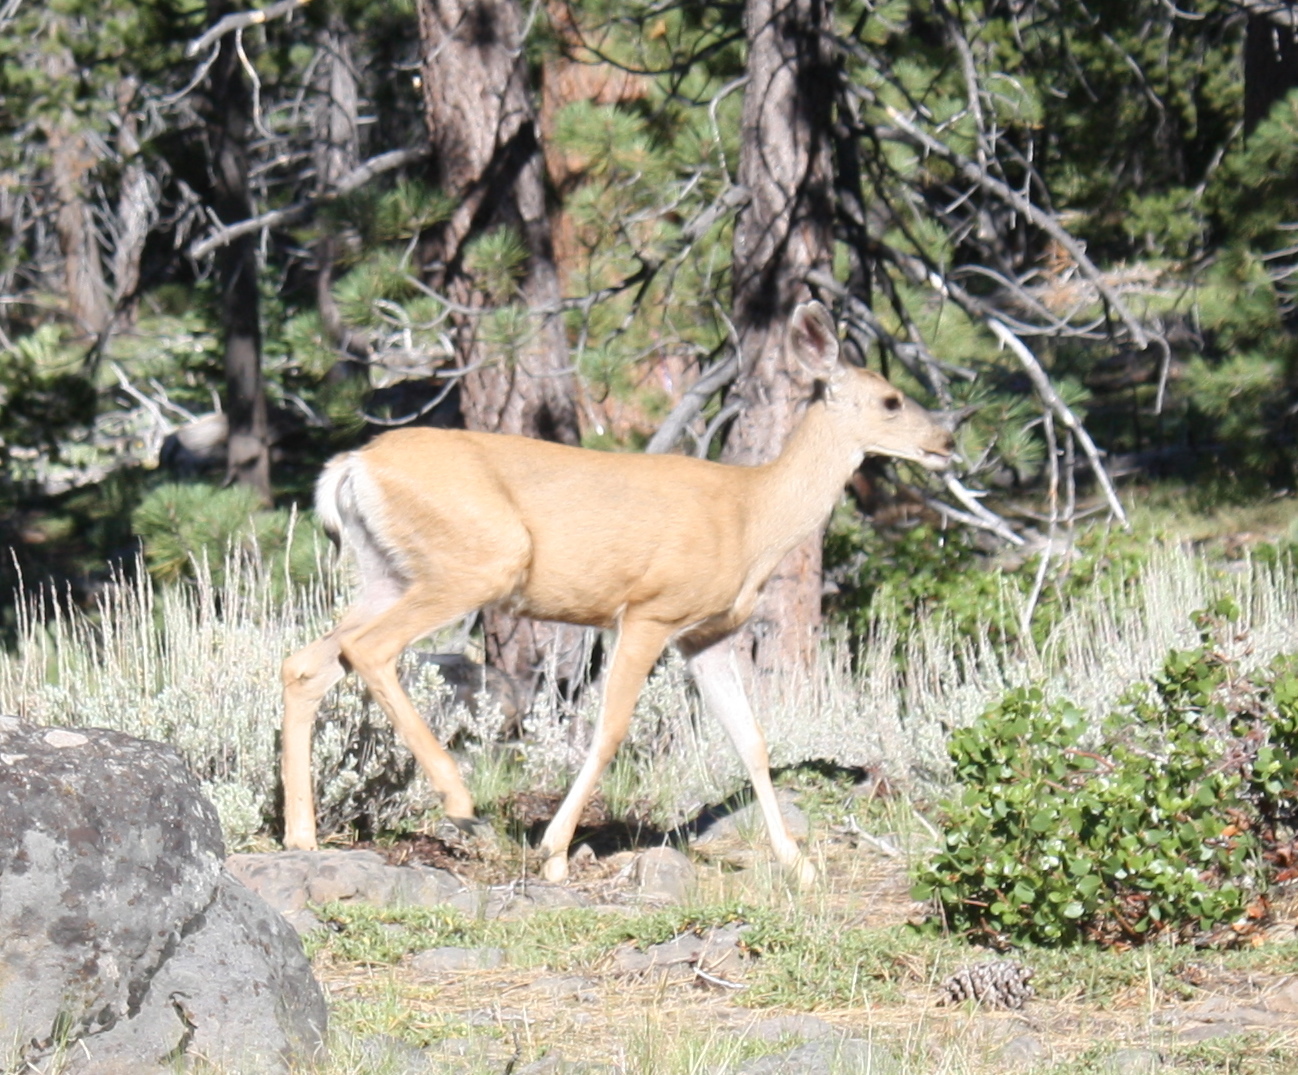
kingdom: Animalia
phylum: Chordata
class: Mammalia
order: Artiodactyla
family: Cervidae
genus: Odocoileus
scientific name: Odocoileus hemionus
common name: Mule deer
